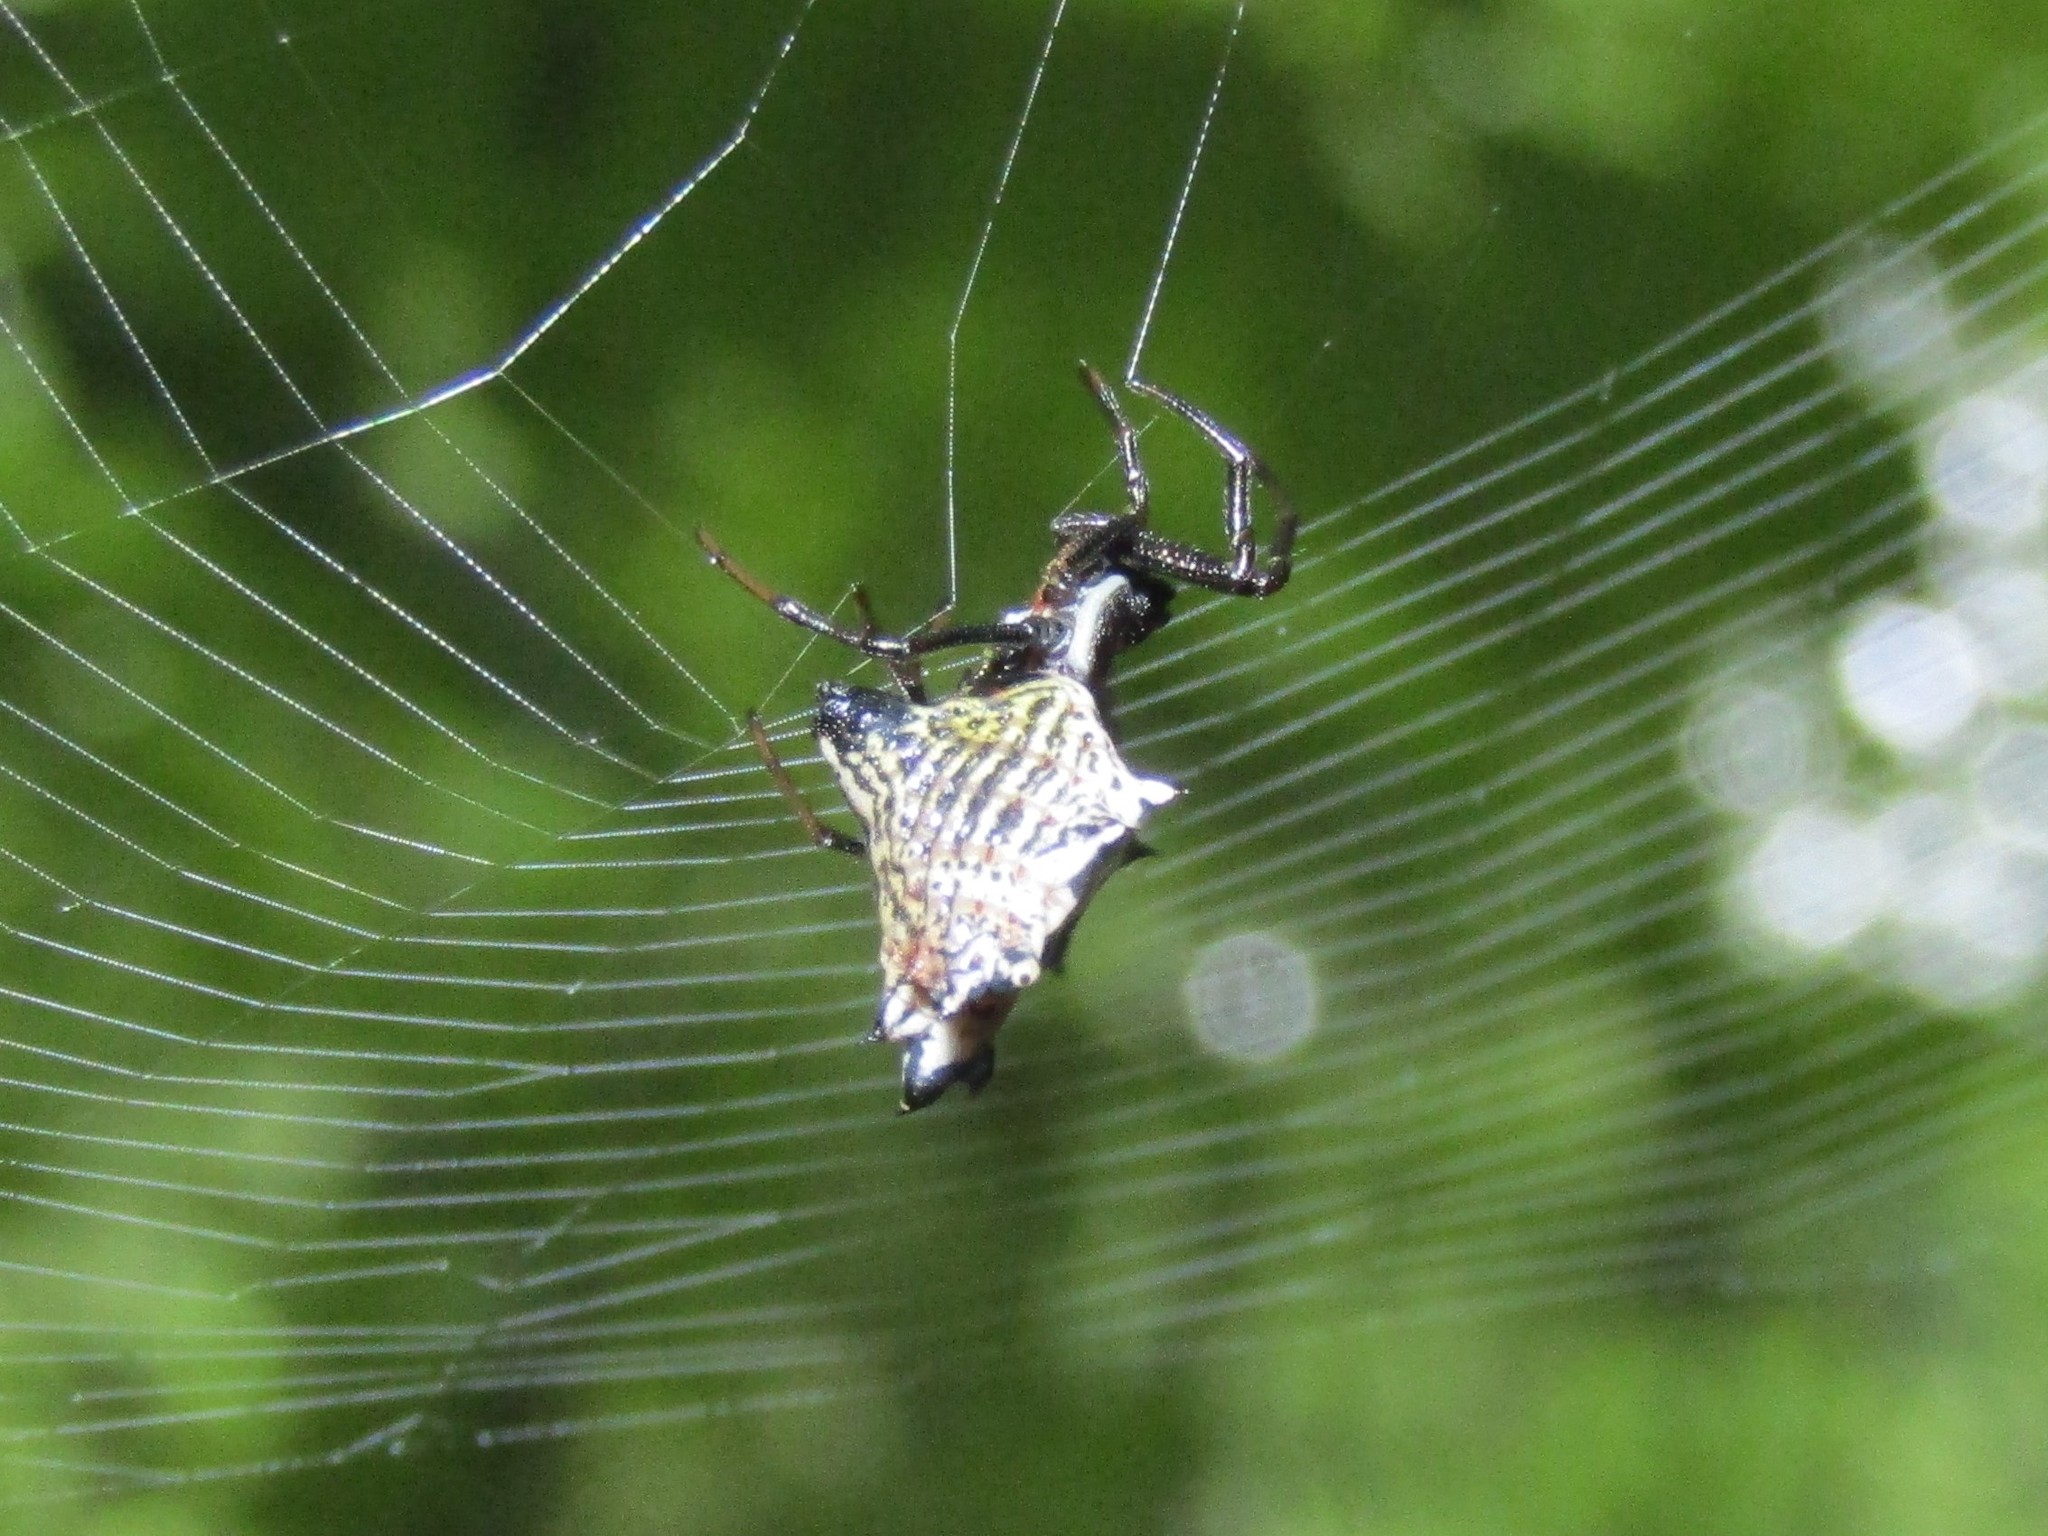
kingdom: Animalia
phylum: Arthropoda
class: Arachnida
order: Araneae
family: Araneidae
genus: Micrathena
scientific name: Micrathena gracilis
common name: Orb weavers
